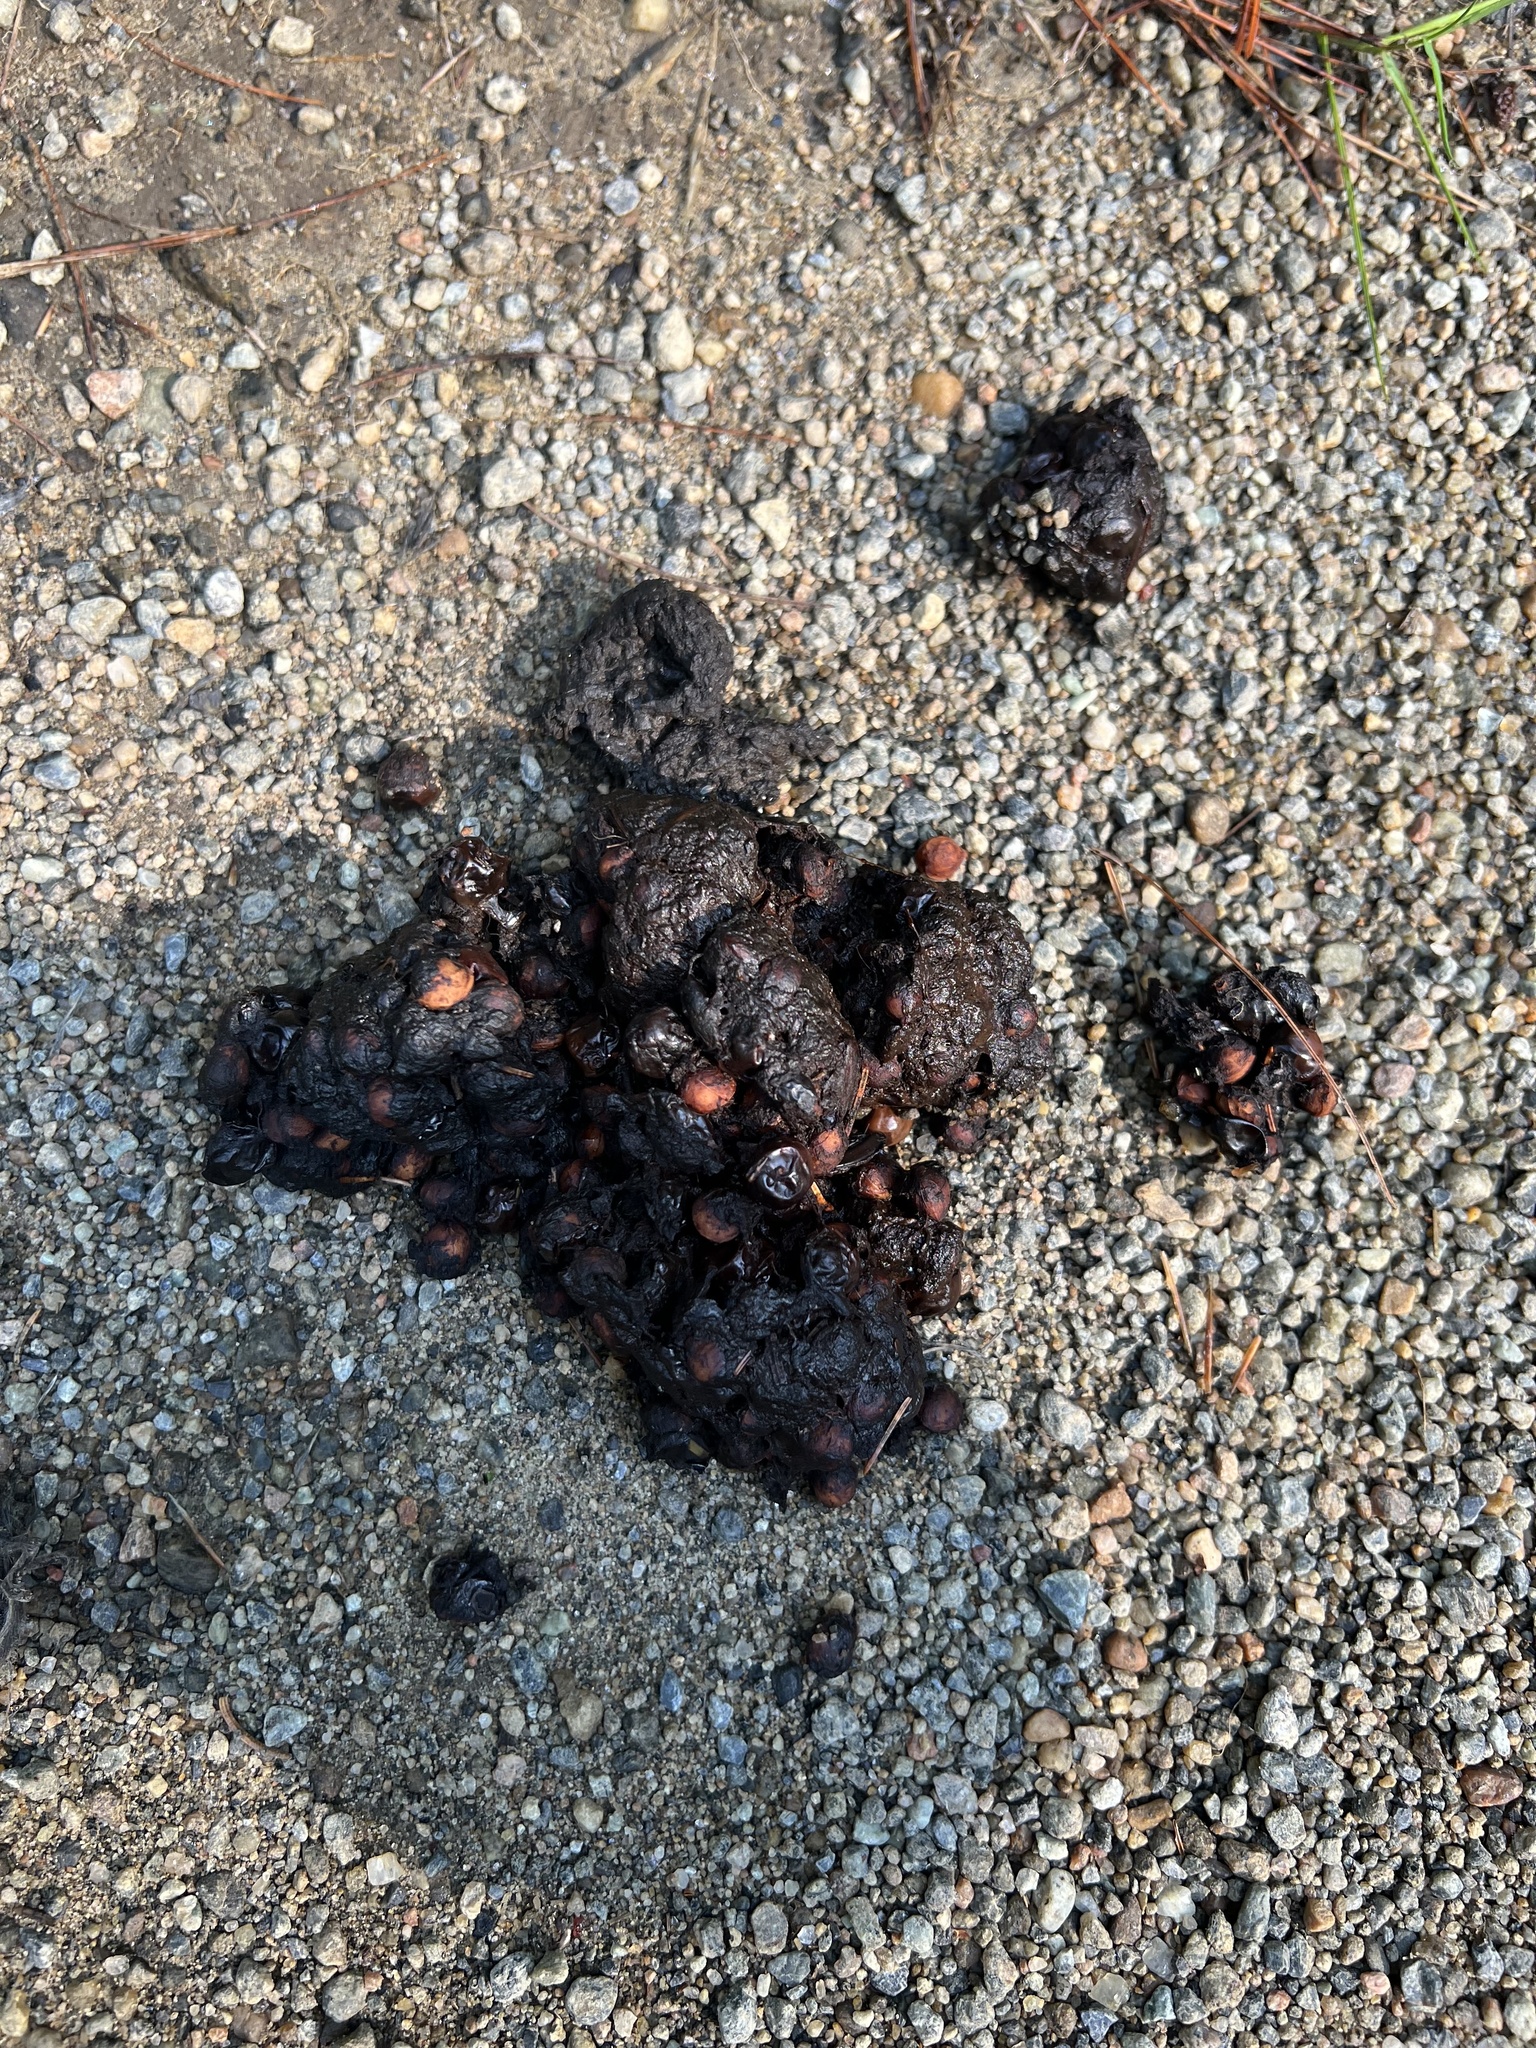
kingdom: Animalia
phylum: Chordata
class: Mammalia
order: Carnivora
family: Ursidae
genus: Ursus
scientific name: Ursus americanus
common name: American black bear
